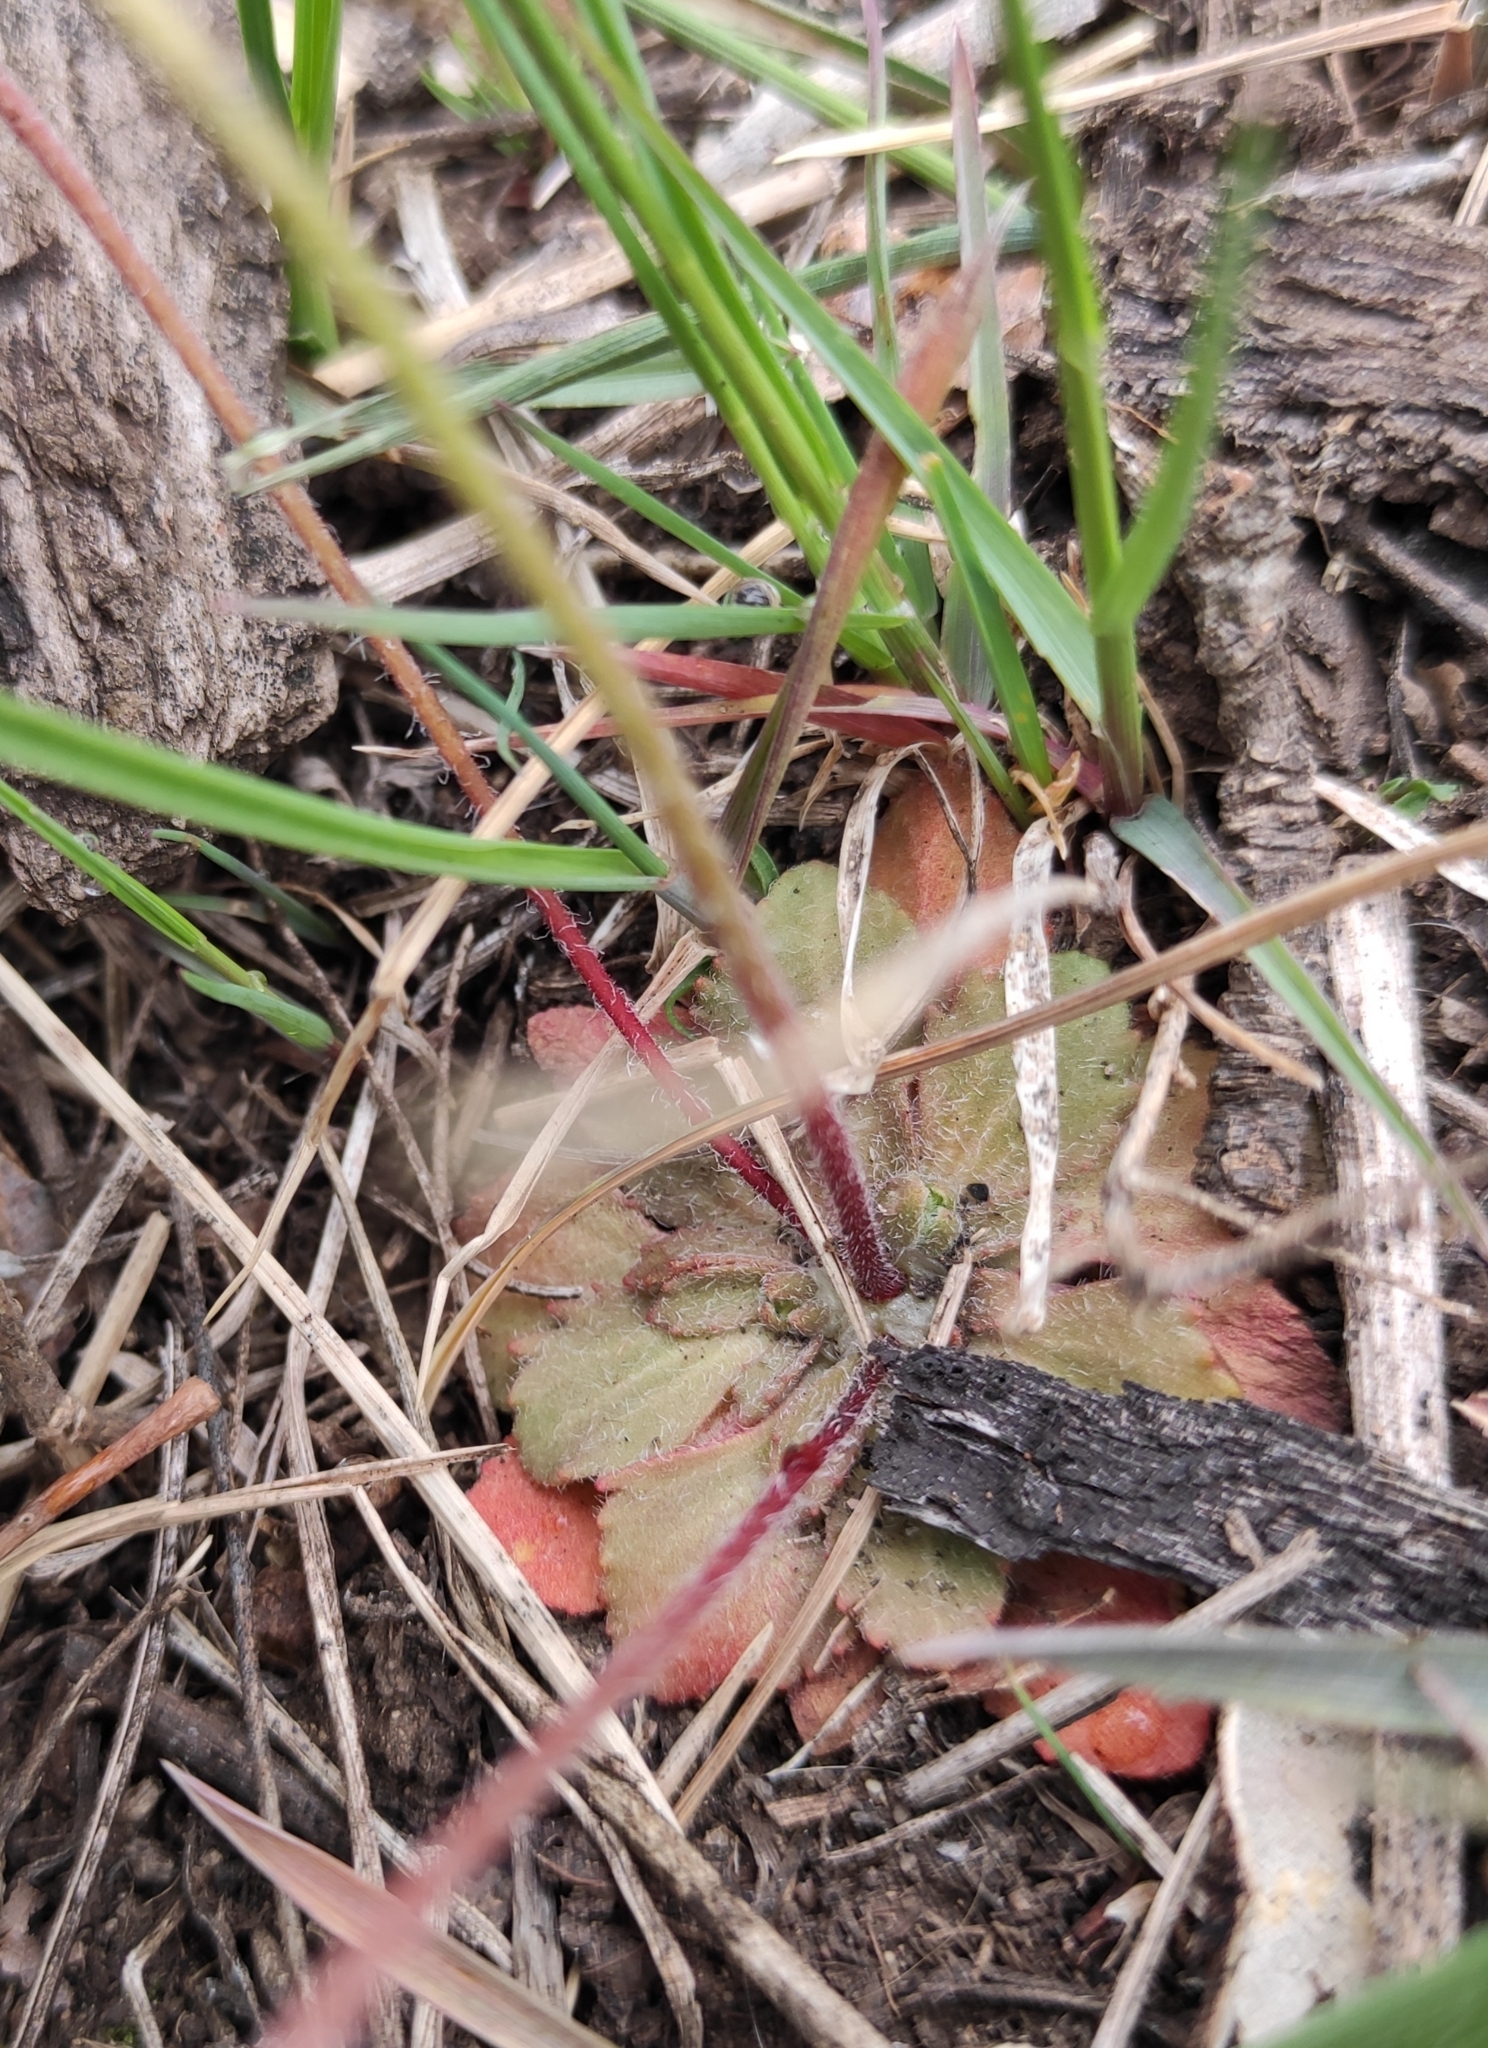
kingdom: Plantae
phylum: Tracheophyta
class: Magnoliopsida
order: Ericales
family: Primulaceae
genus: Androsace
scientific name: Androsace maxima
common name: Annual androsace
